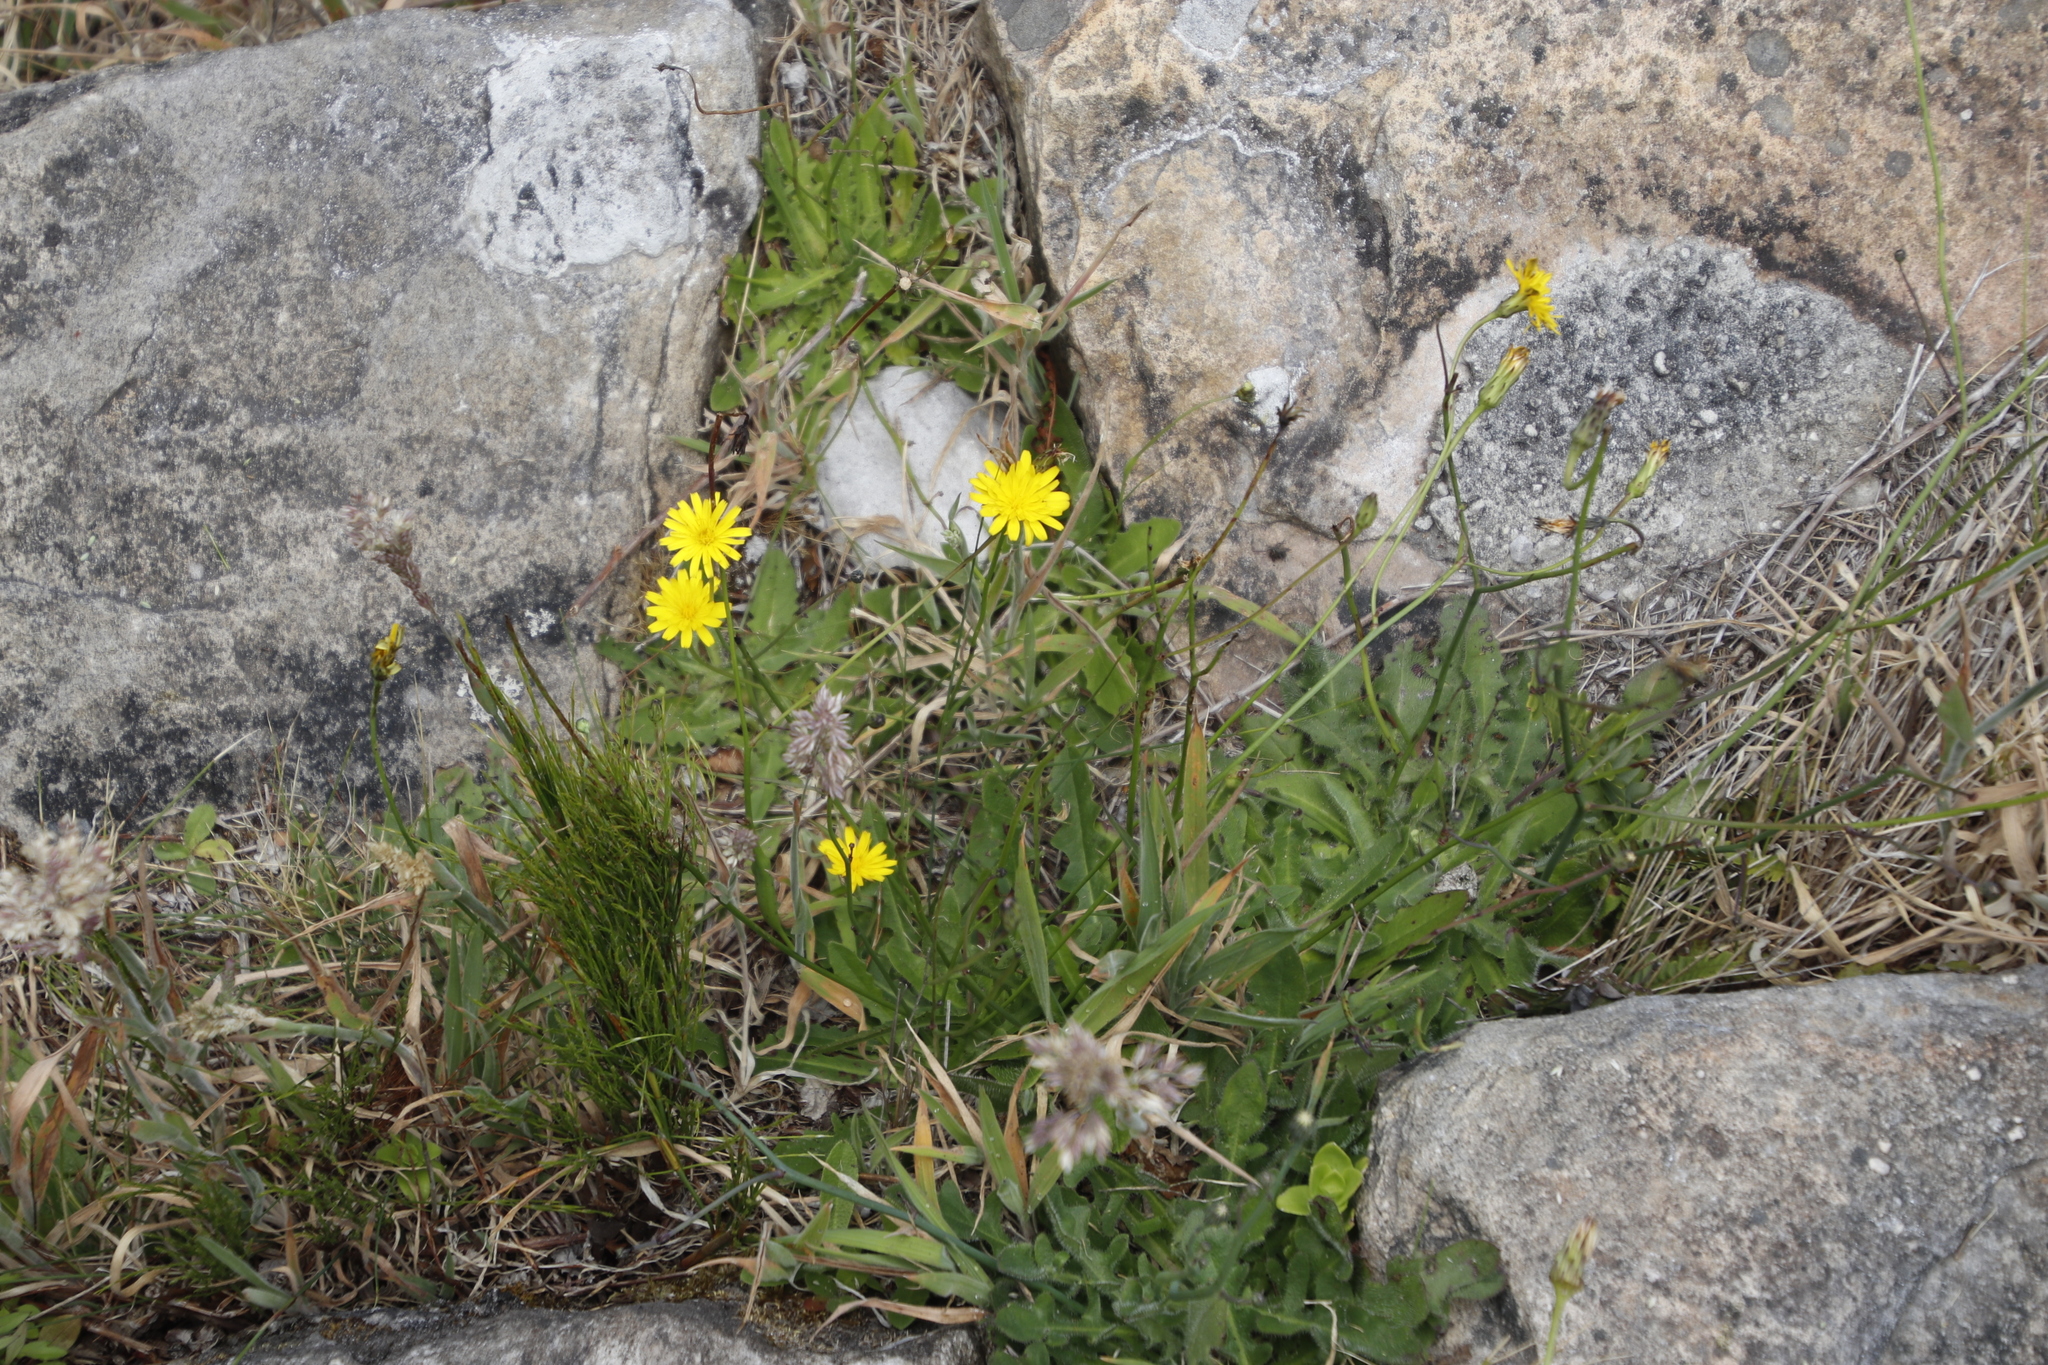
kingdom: Plantae
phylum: Tracheophyta
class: Magnoliopsida
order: Asterales
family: Asteraceae
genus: Hypochaeris
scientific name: Hypochaeris radicata
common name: Flatweed
